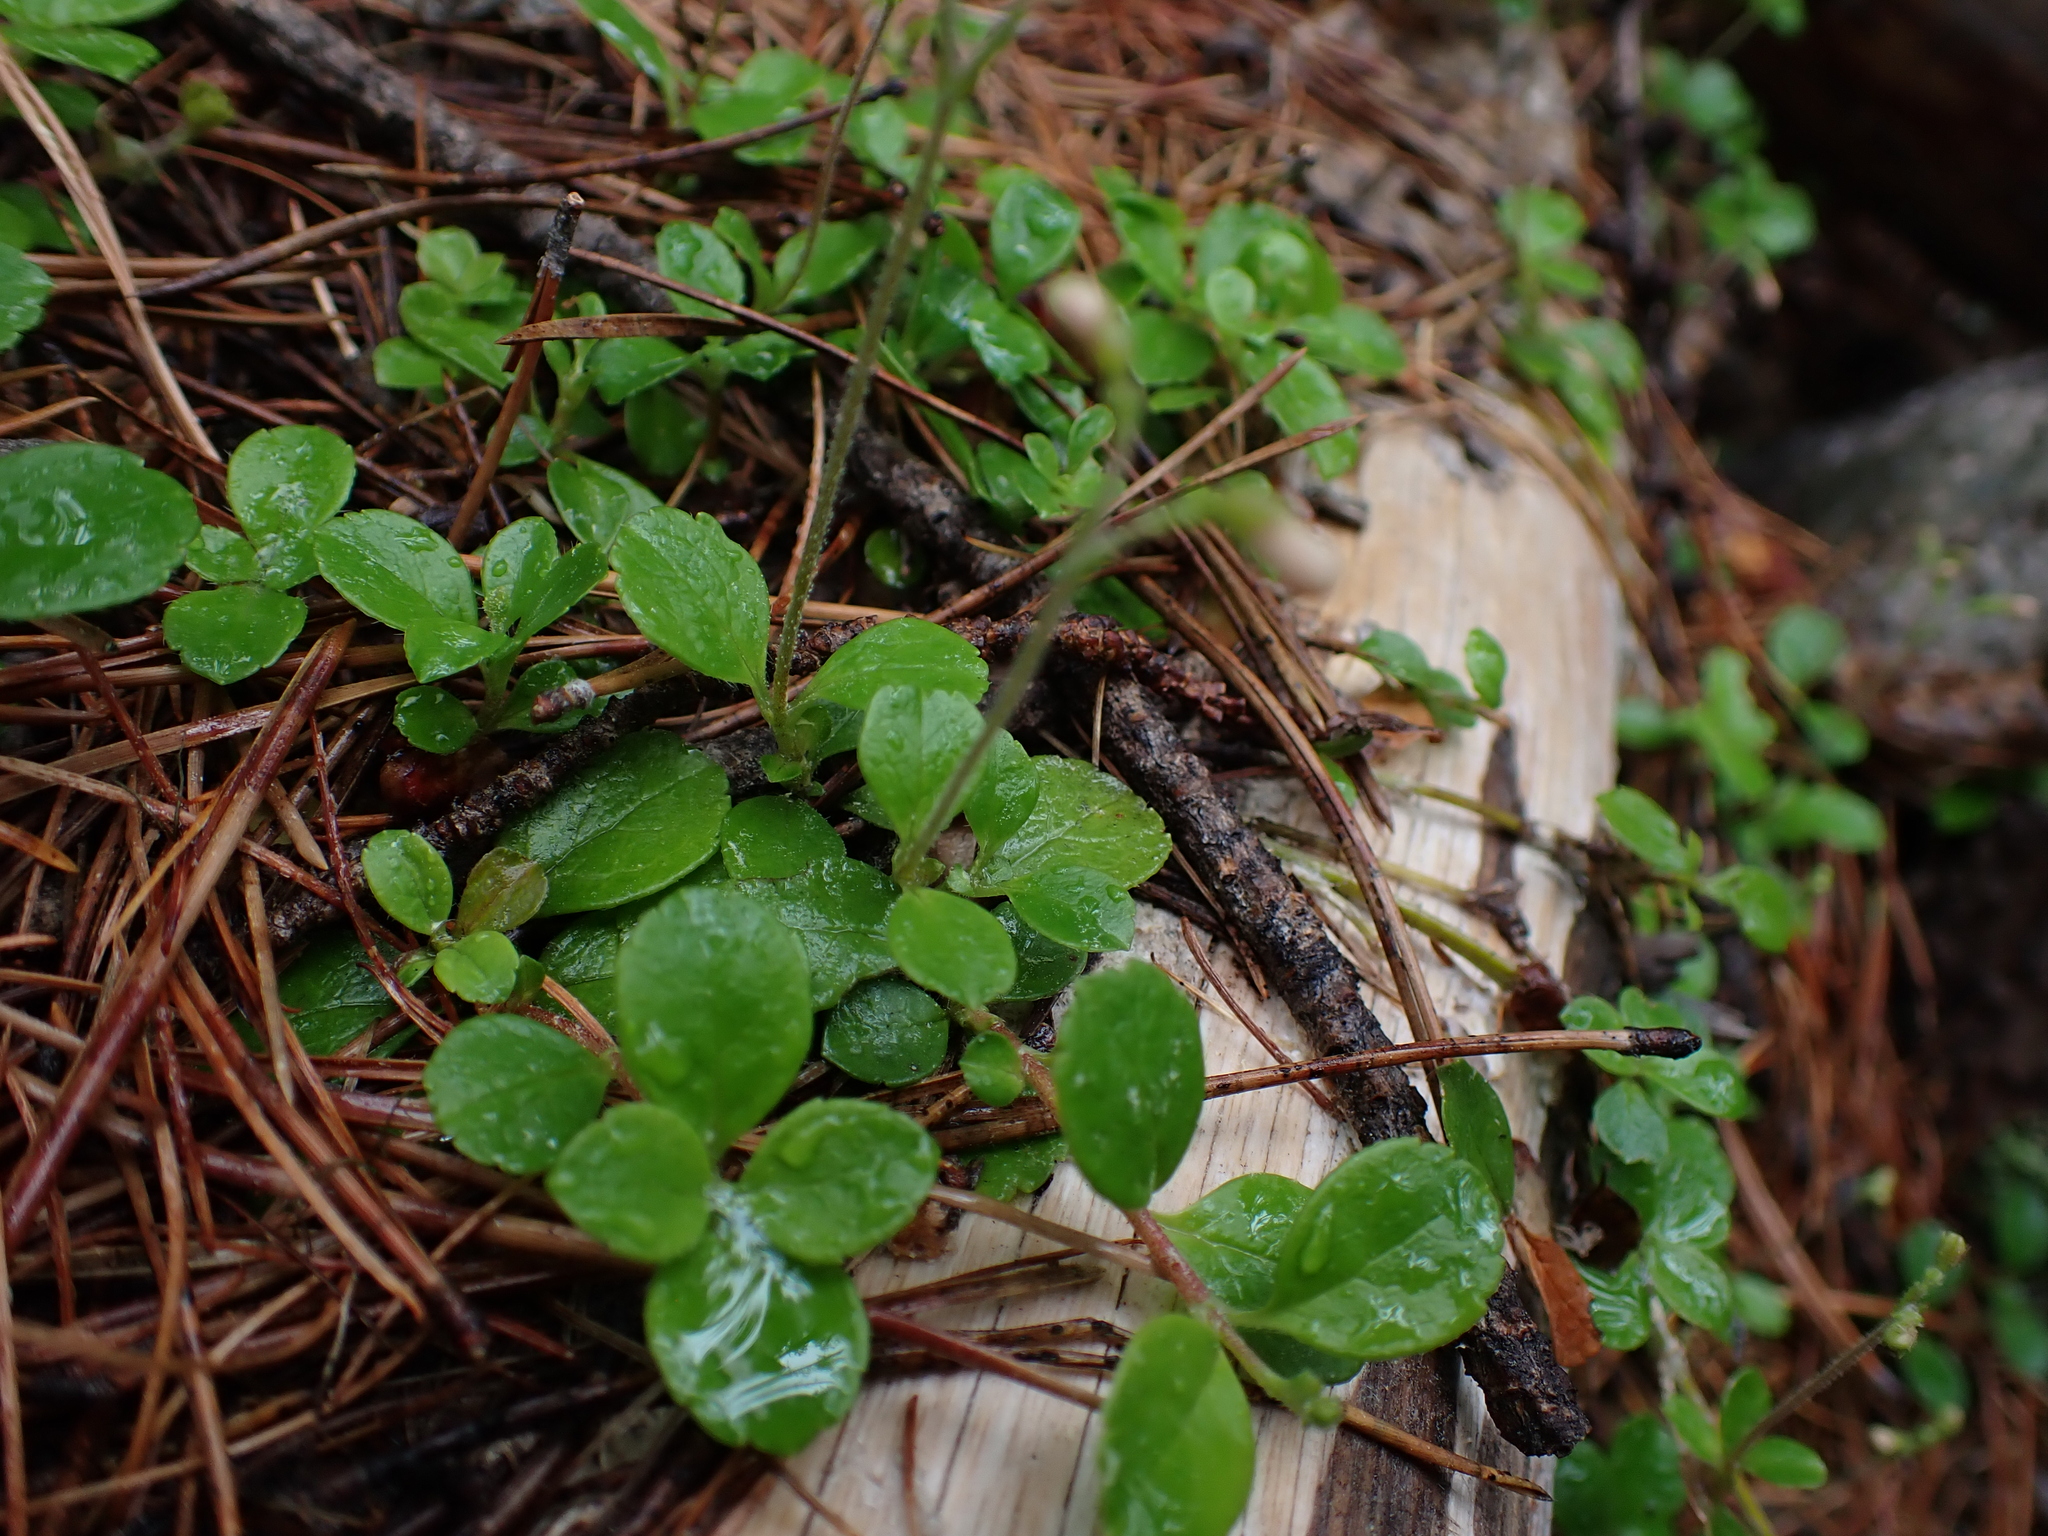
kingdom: Plantae
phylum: Tracheophyta
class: Magnoliopsida
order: Dipsacales
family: Caprifoliaceae
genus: Linnaea
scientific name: Linnaea borealis
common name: Twinflower
